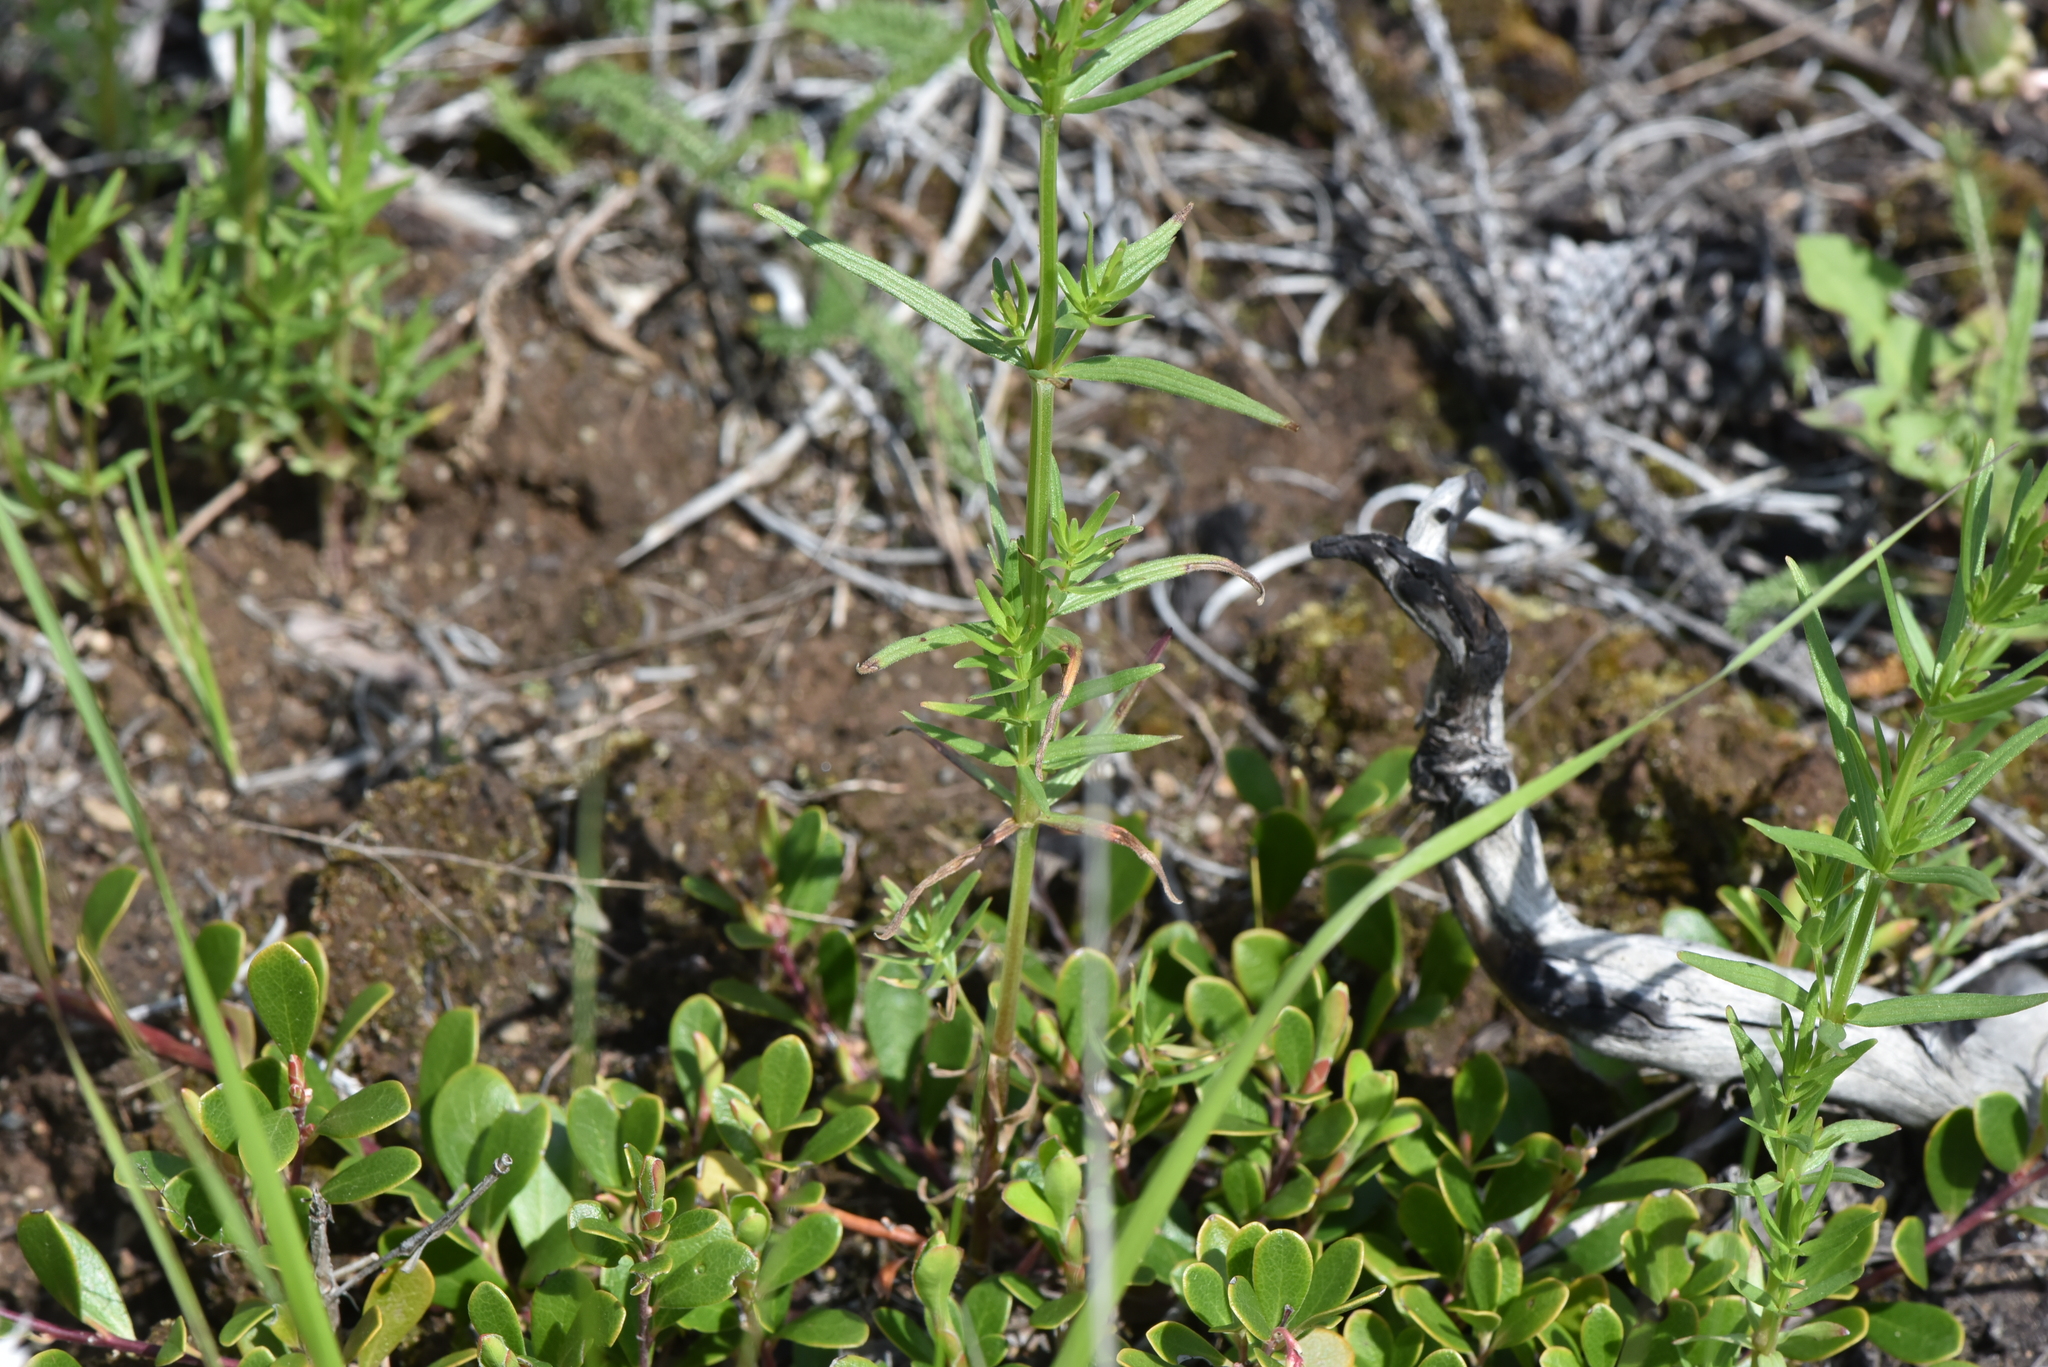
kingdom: Plantae
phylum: Tracheophyta
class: Magnoliopsida
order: Gentianales
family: Rubiaceae
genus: Galium
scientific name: Galium boreale
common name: Northern bedstraw
